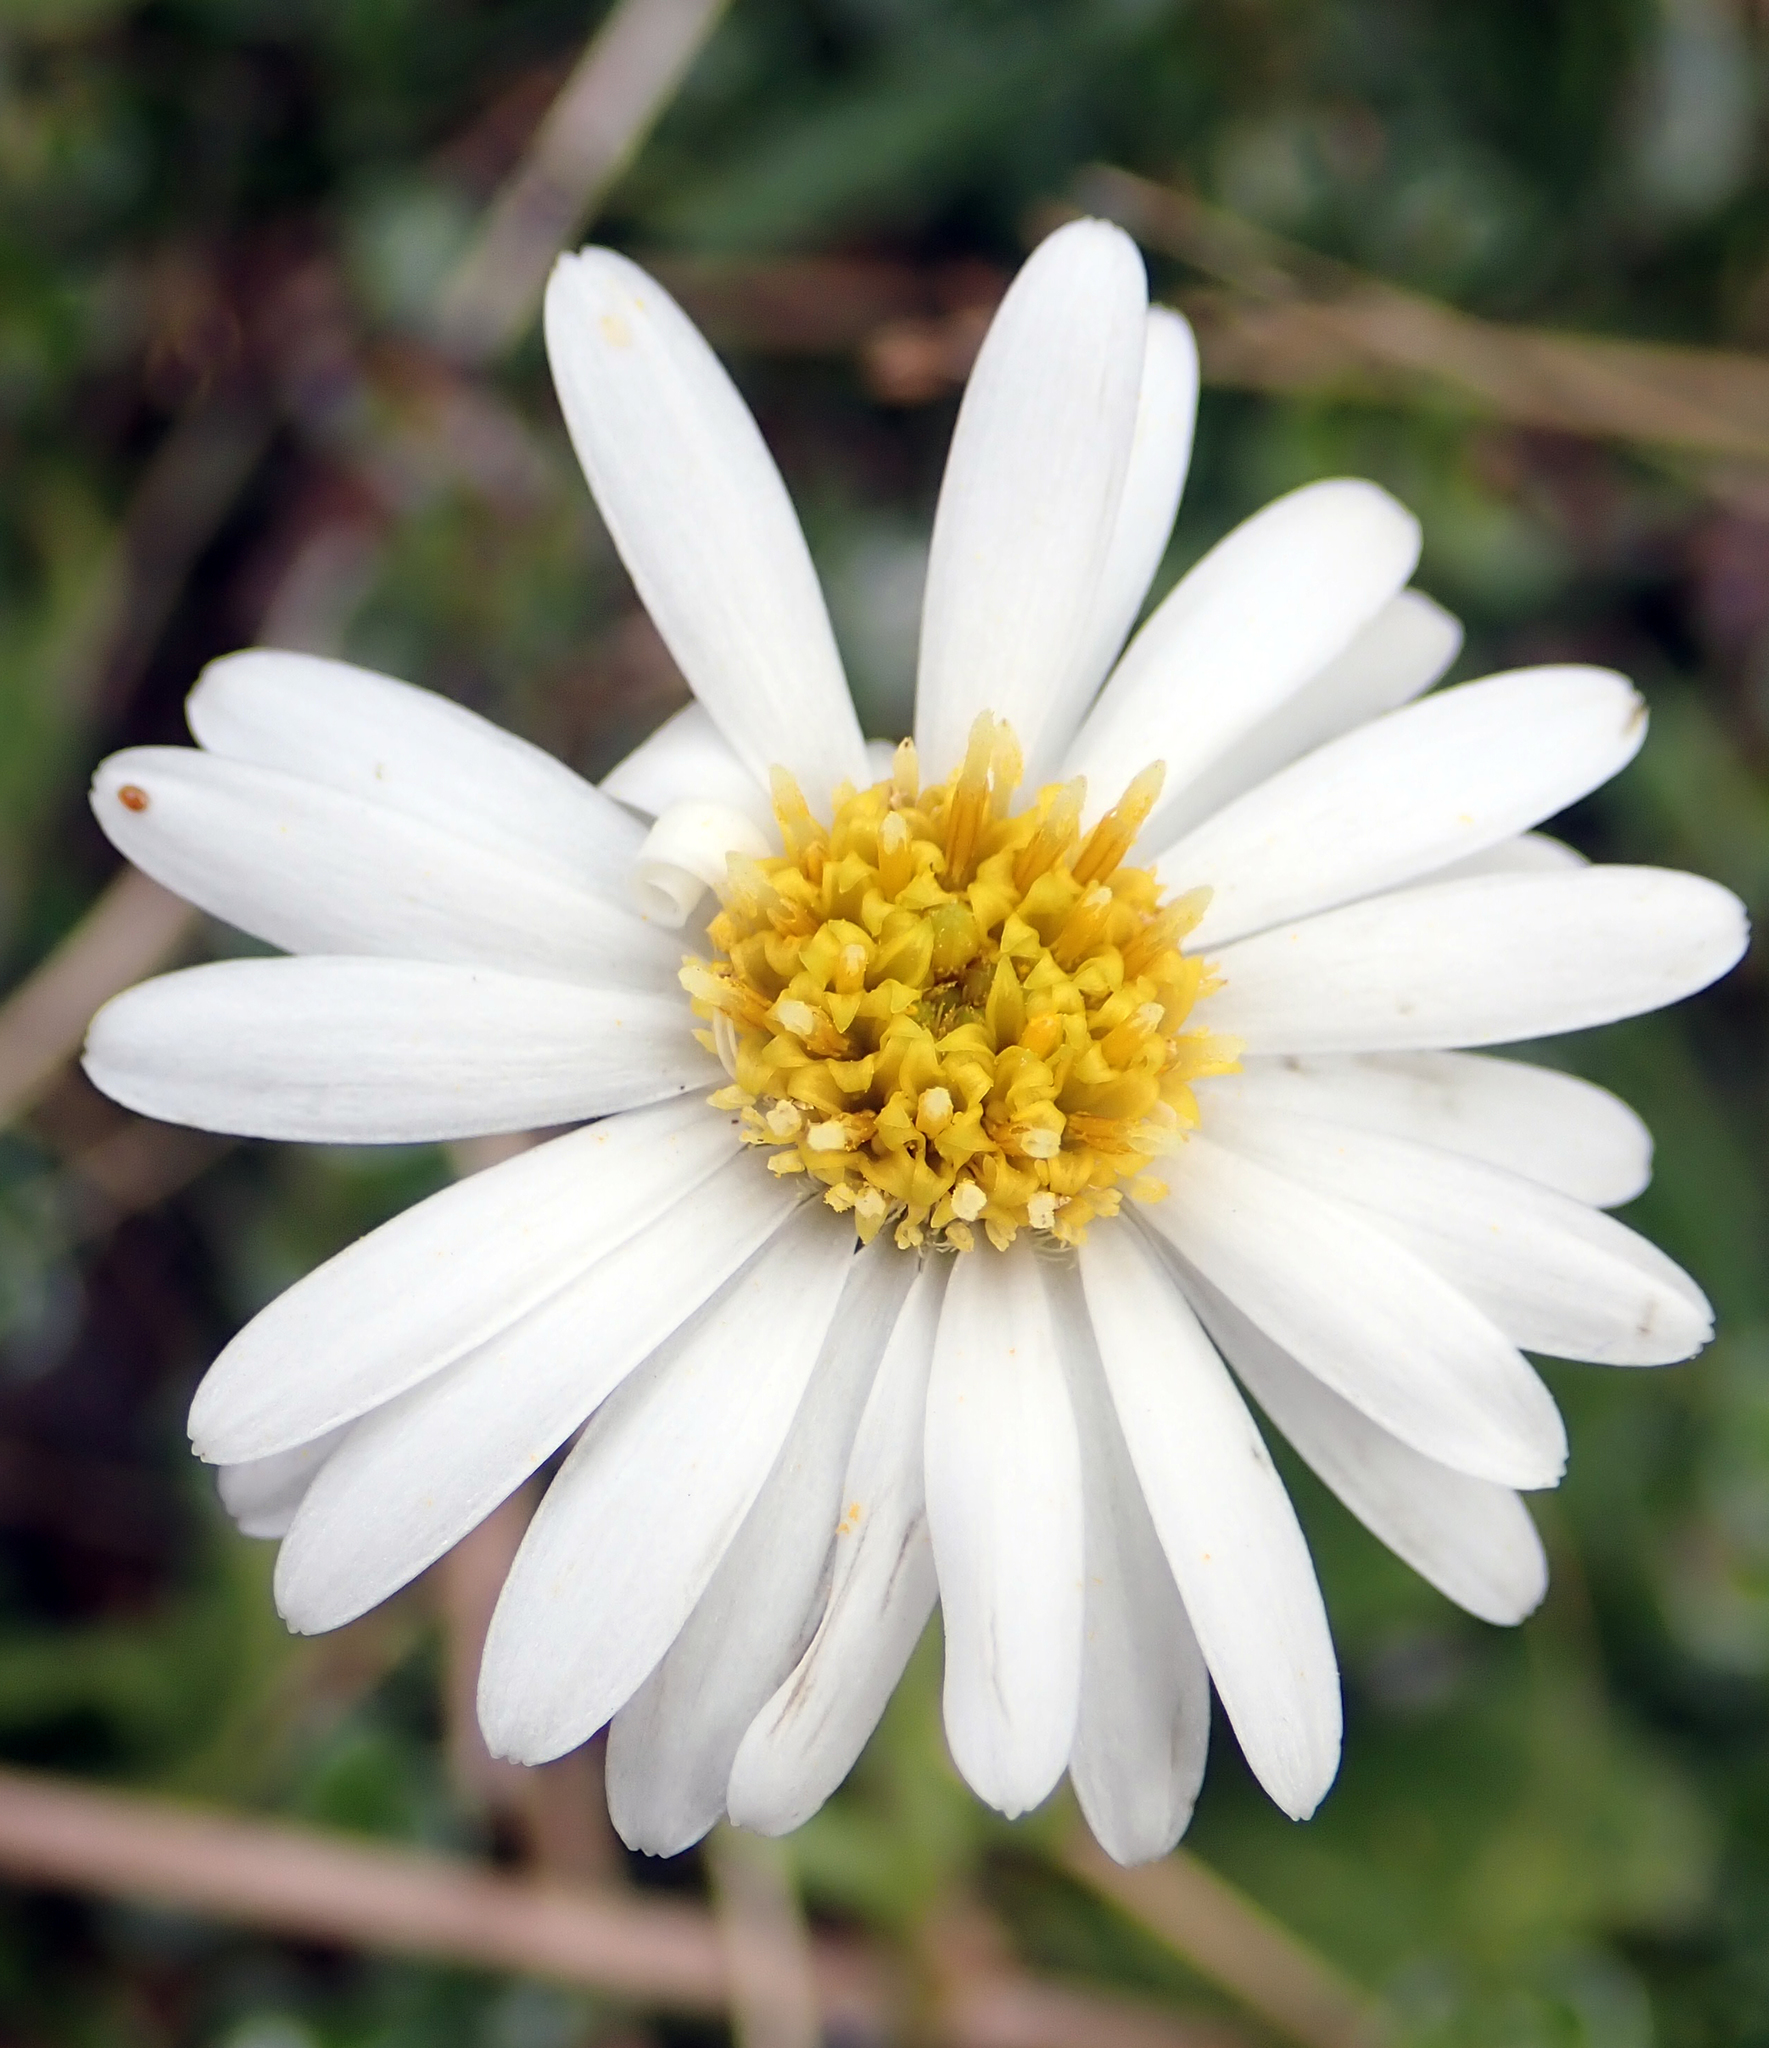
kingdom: Plantae
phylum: Tracheophyta
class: Magnoliopsida
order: Asterales
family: Asteraceae
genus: Celmisia
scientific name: Celmisia glandulosa
